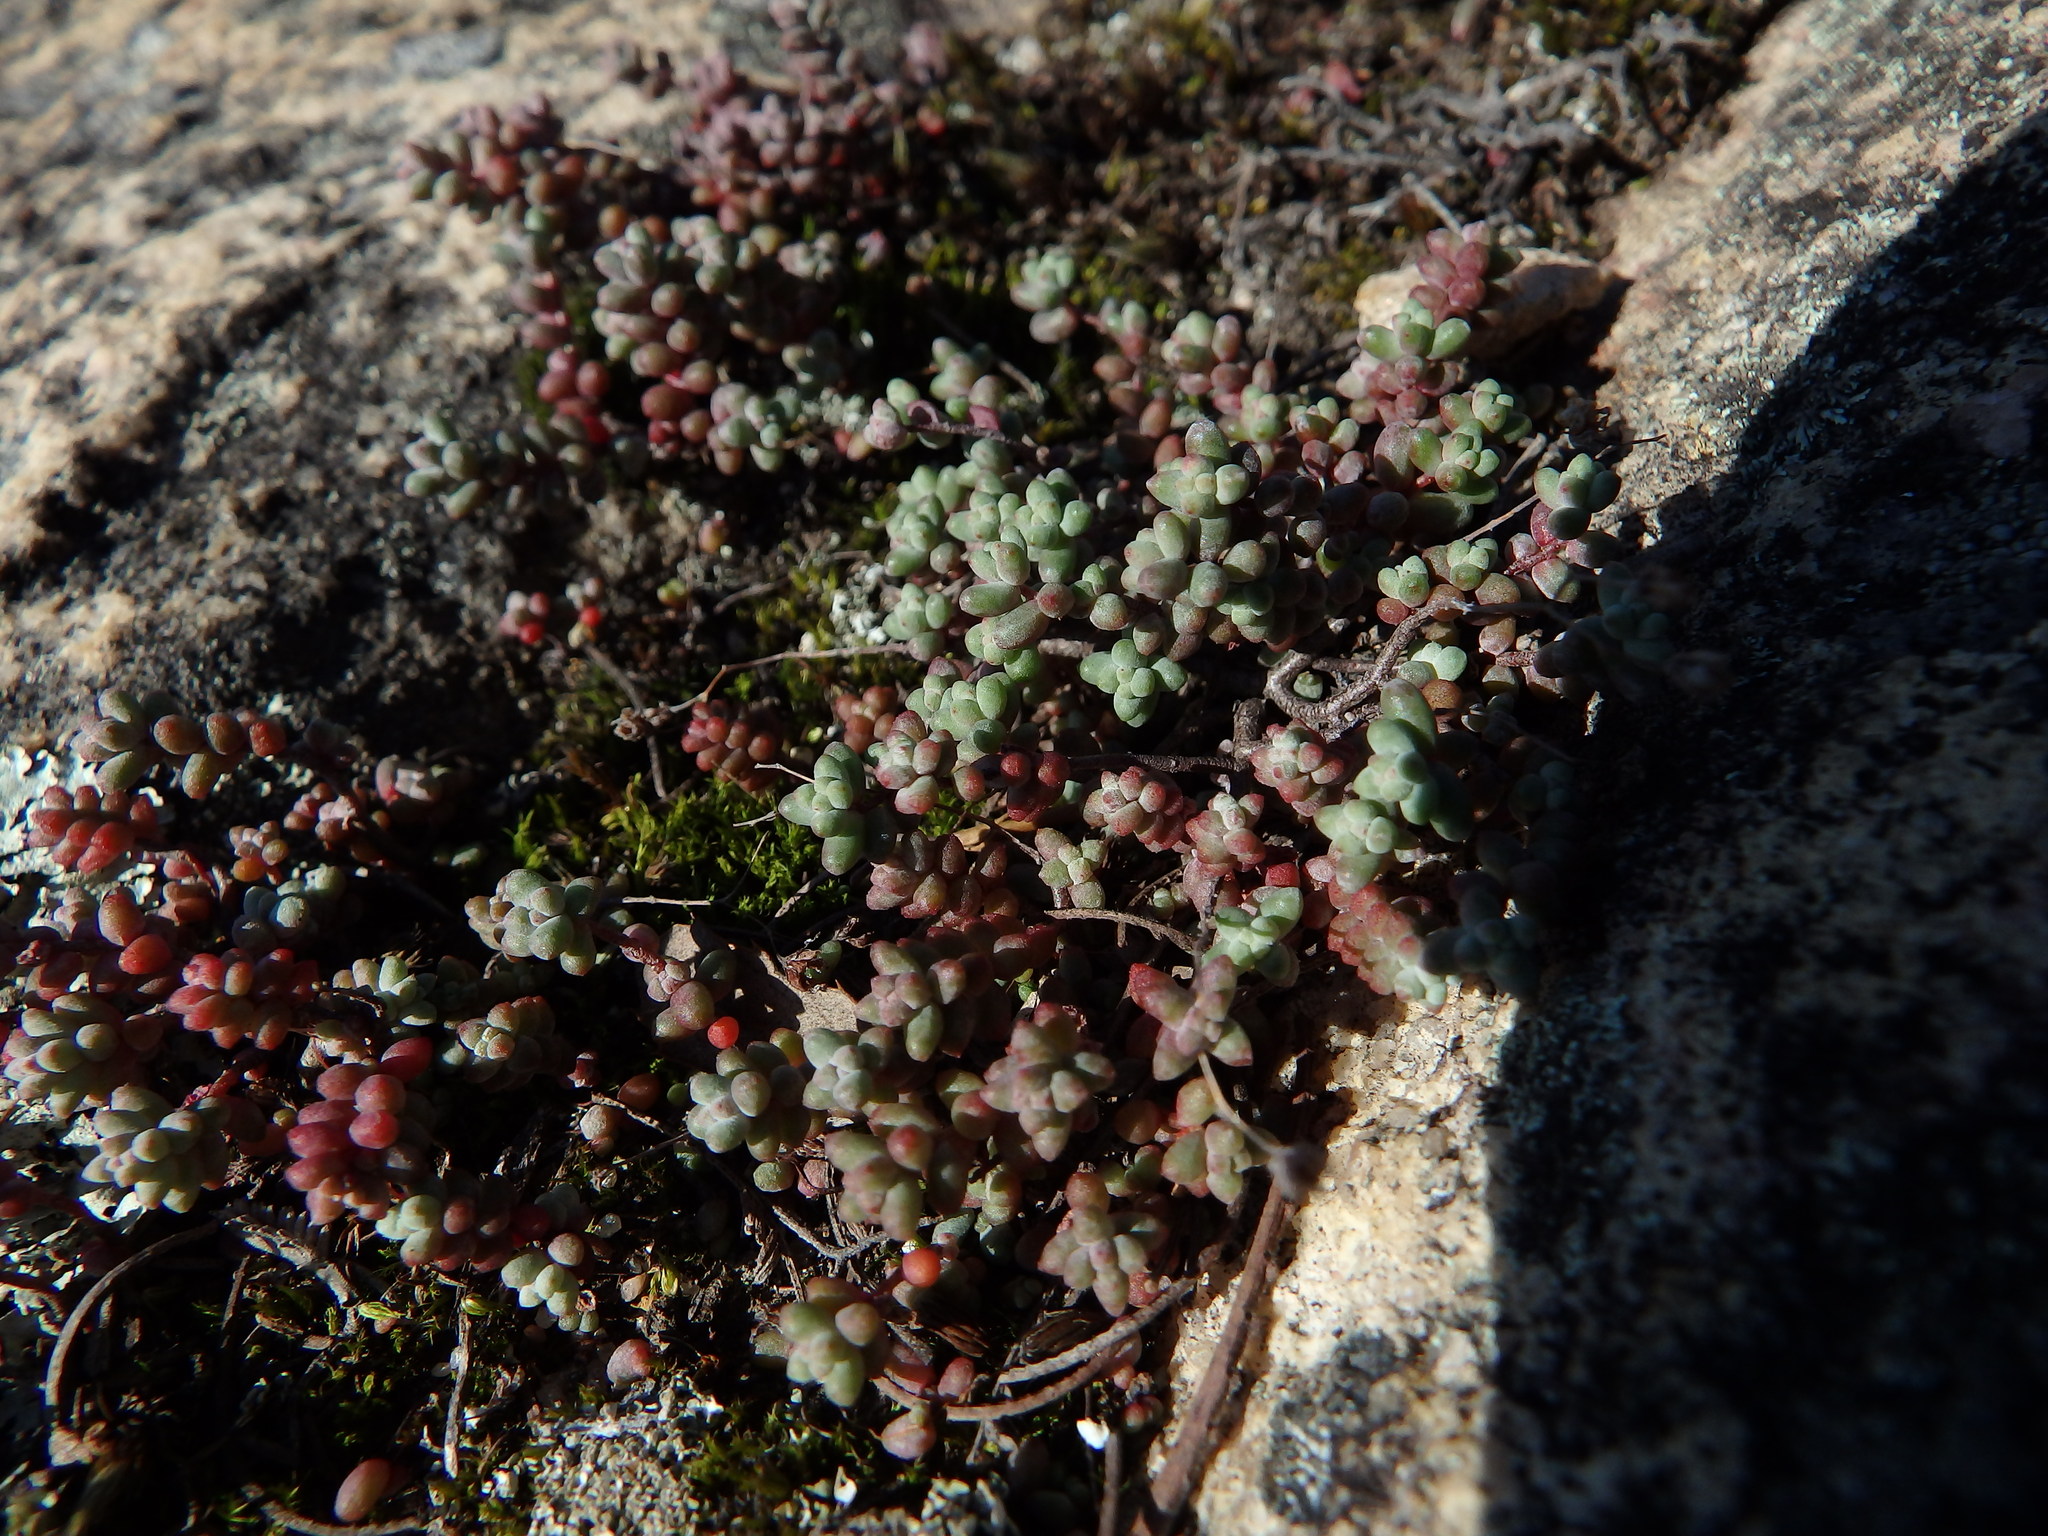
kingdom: Plantae
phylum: Tracheophyta
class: Magnoliopsida
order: Saxifragales
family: Crassulaceae
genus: Sedum
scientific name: Sedum brevifolium
